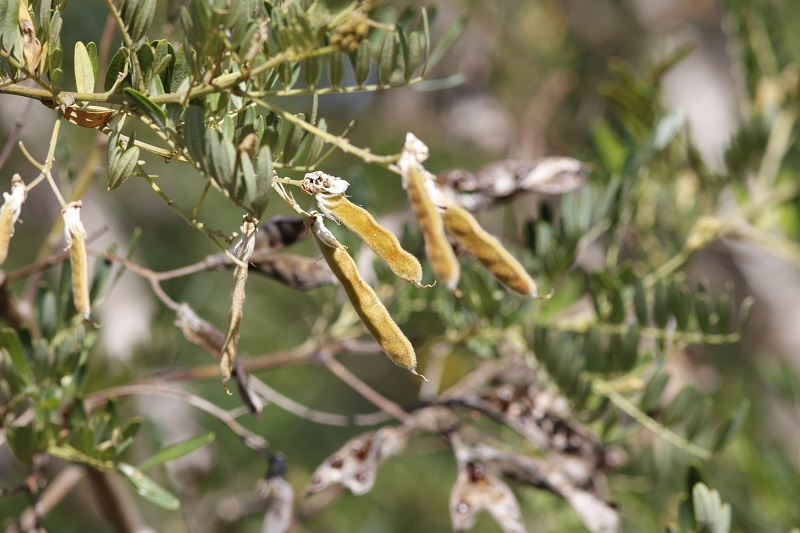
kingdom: Plantae
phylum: Tracheophyta
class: Magnoliopsida
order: Fabales
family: Fabaceae
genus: Virgilia
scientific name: Virgilia divaricata
